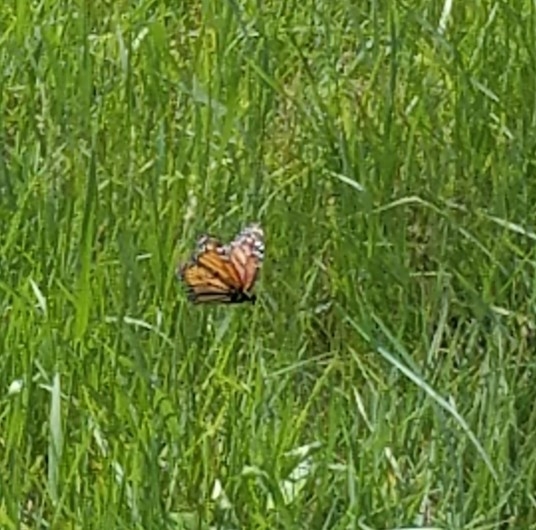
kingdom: Animalia
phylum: Arthropoda
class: Insecta
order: Lepidoptera
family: Nymphalidae
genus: Danaus
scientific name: Danaus plexippus
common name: Monarch
